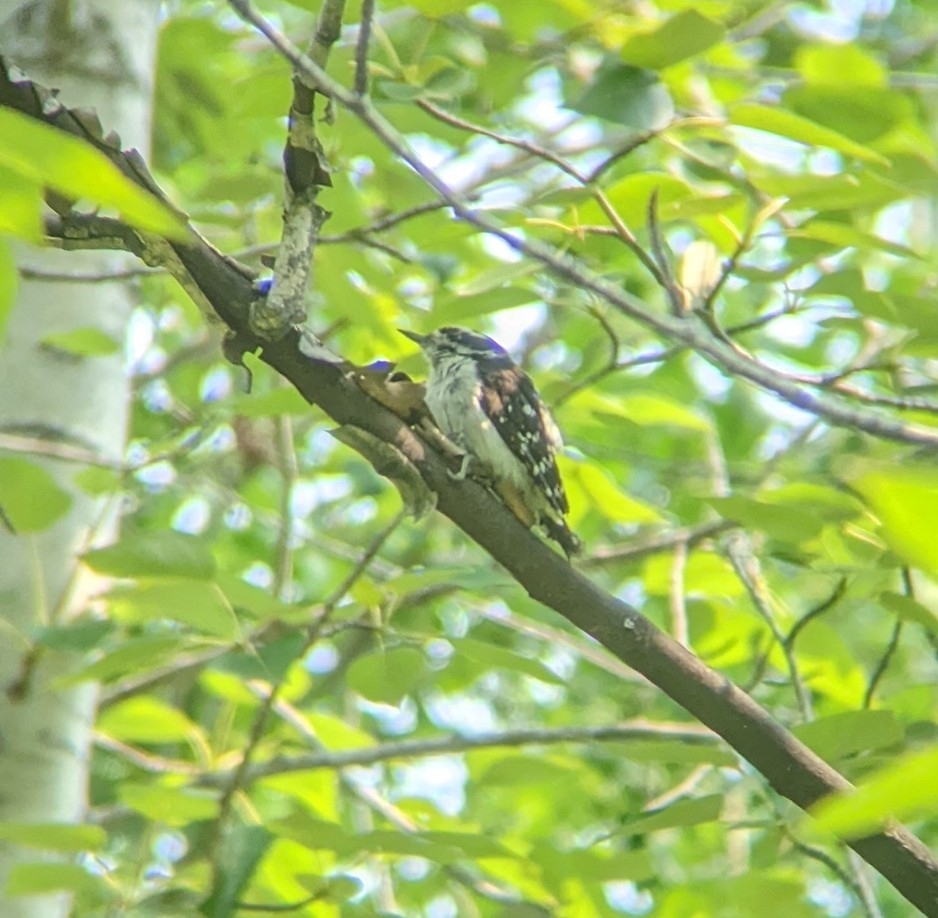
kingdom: Animalia
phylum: Chordata
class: Aves
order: Piciformes
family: Picidae
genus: Dryobates
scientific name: Dryobates pubescens
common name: Downy woodpecker
